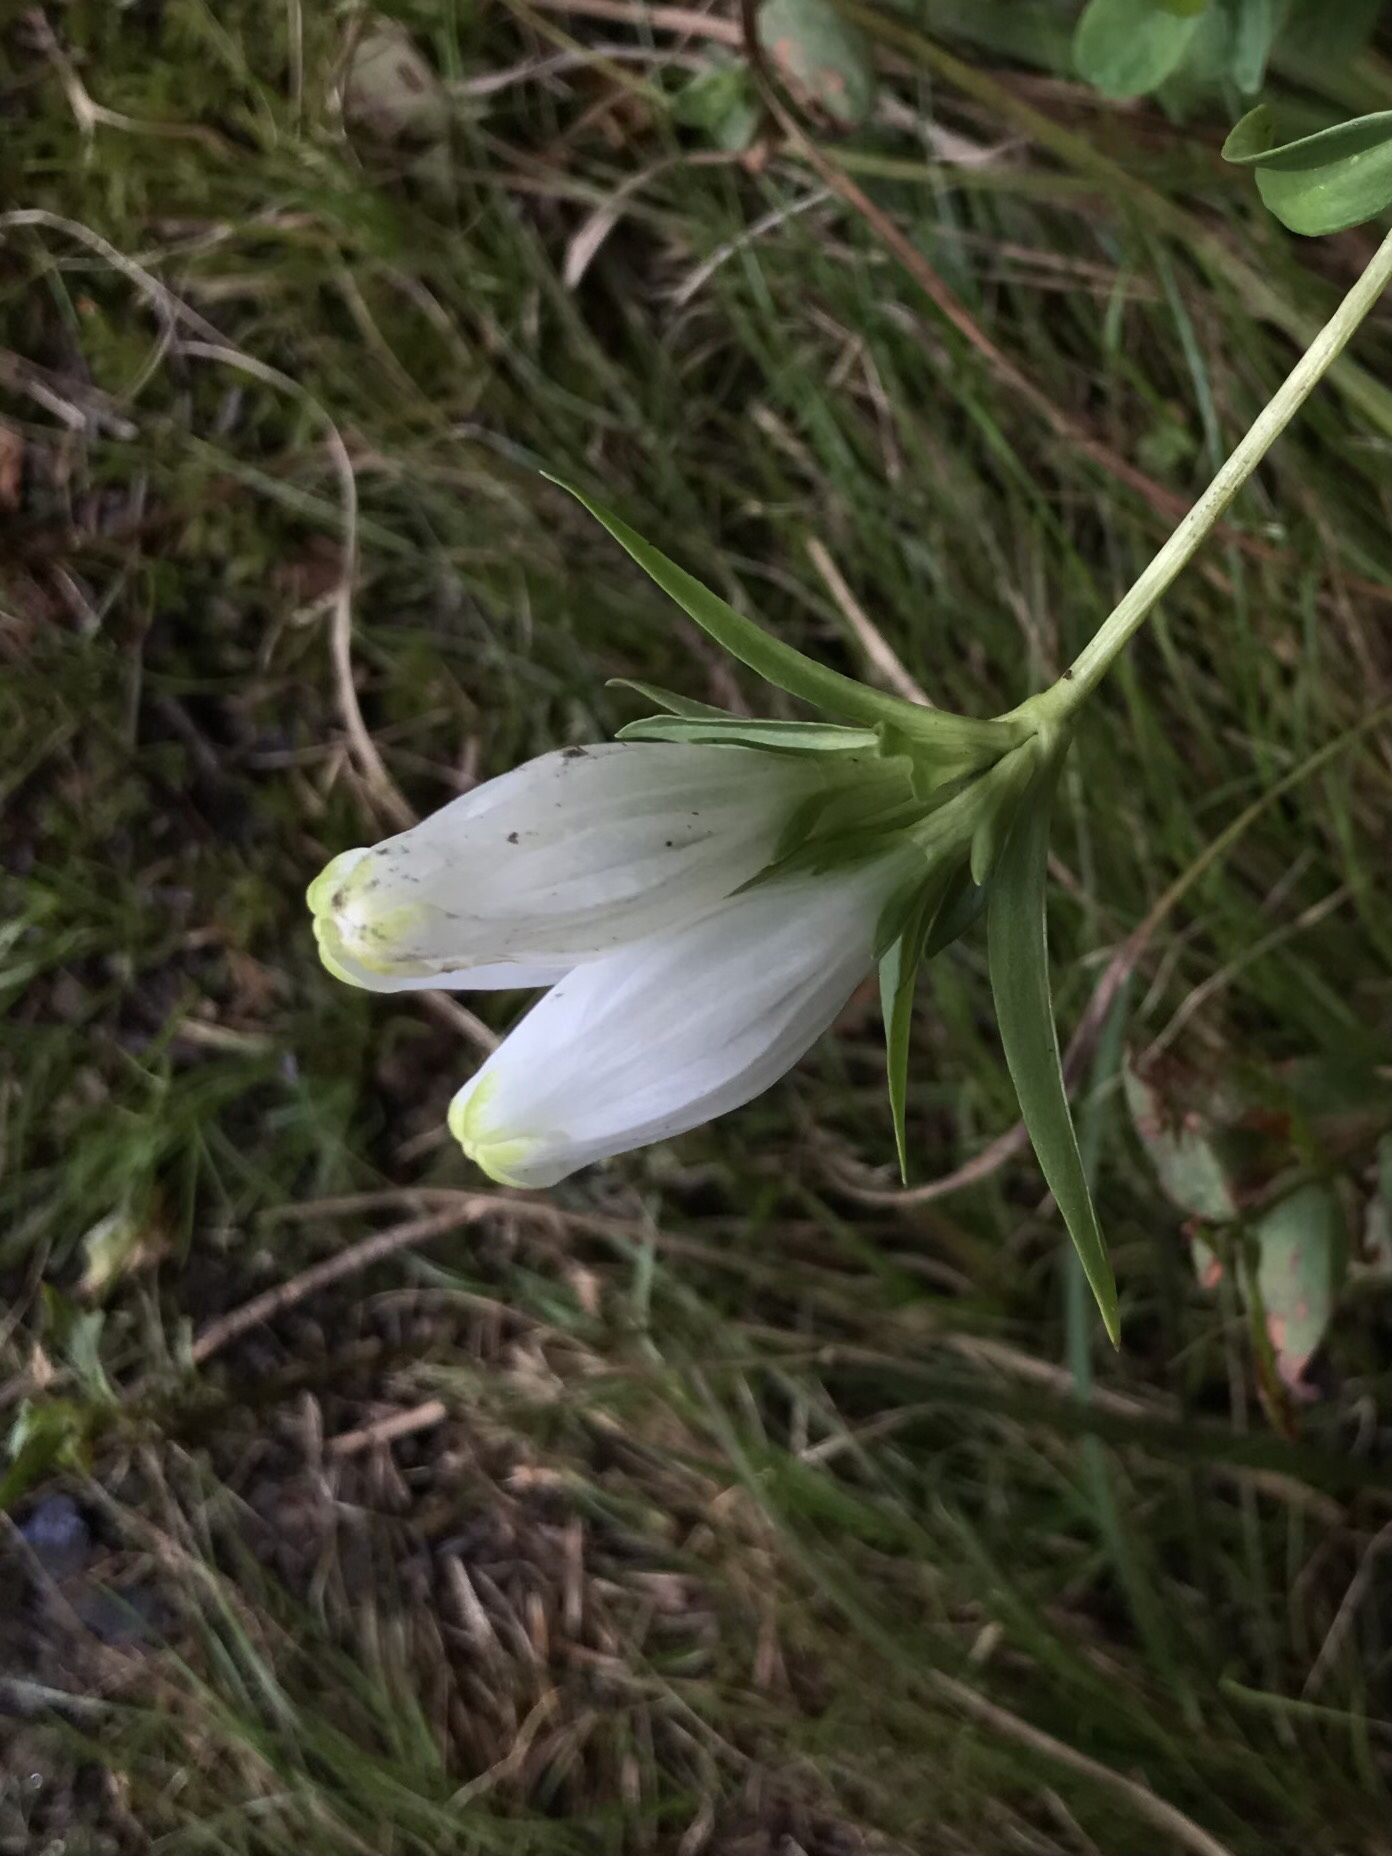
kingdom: Plantae
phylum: Tracheophyta
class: Magnoliopsida
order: Gentianales
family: Gentianaceae
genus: Gentiana
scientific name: Gentiana linearis
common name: Bastard gentian
